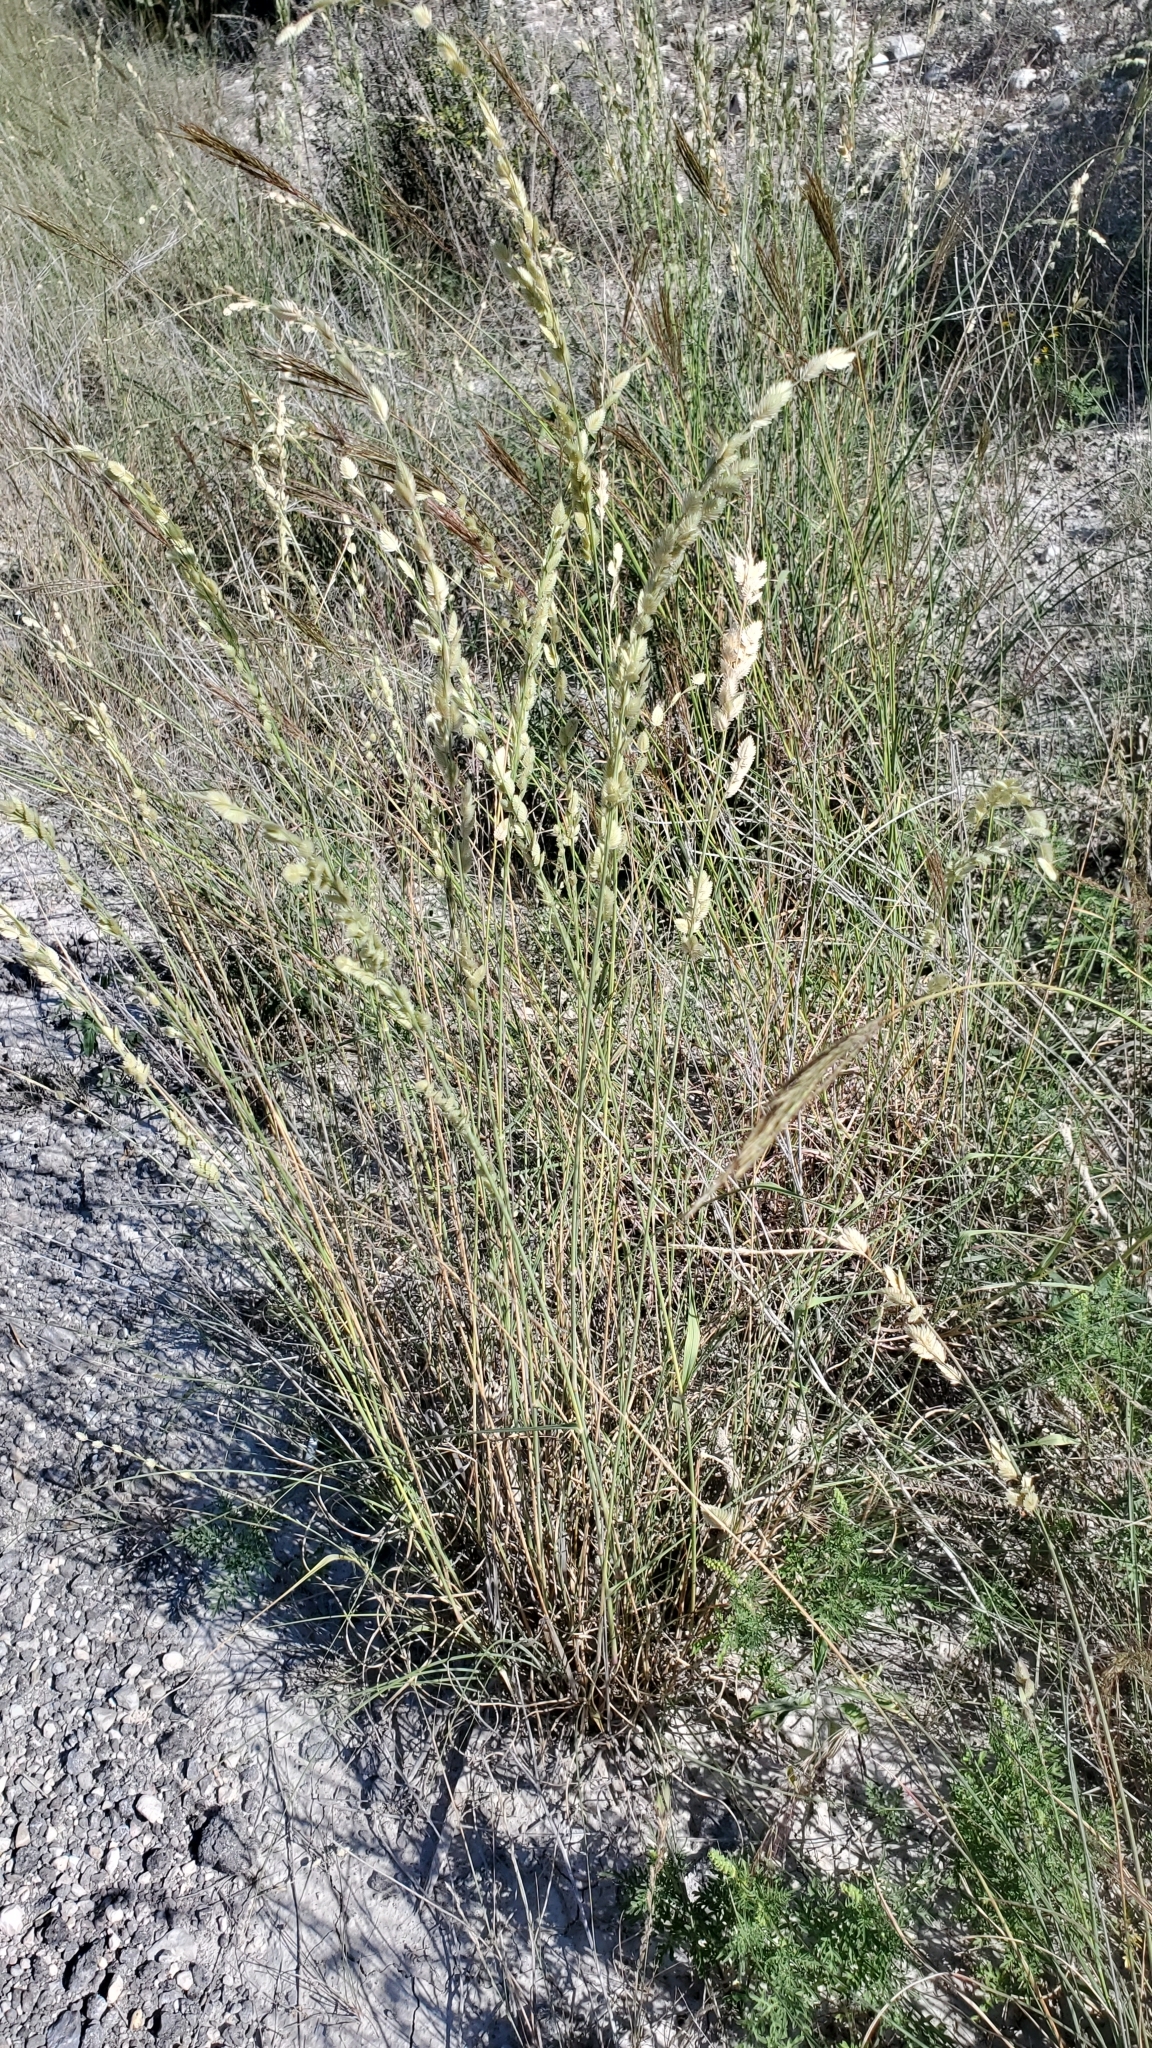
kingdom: Plantae
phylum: Tracheophyta
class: Liliopsida
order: Poales
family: Poaceae
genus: Eragrostis
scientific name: Eragrostis superba
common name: Wilman lovegrass
